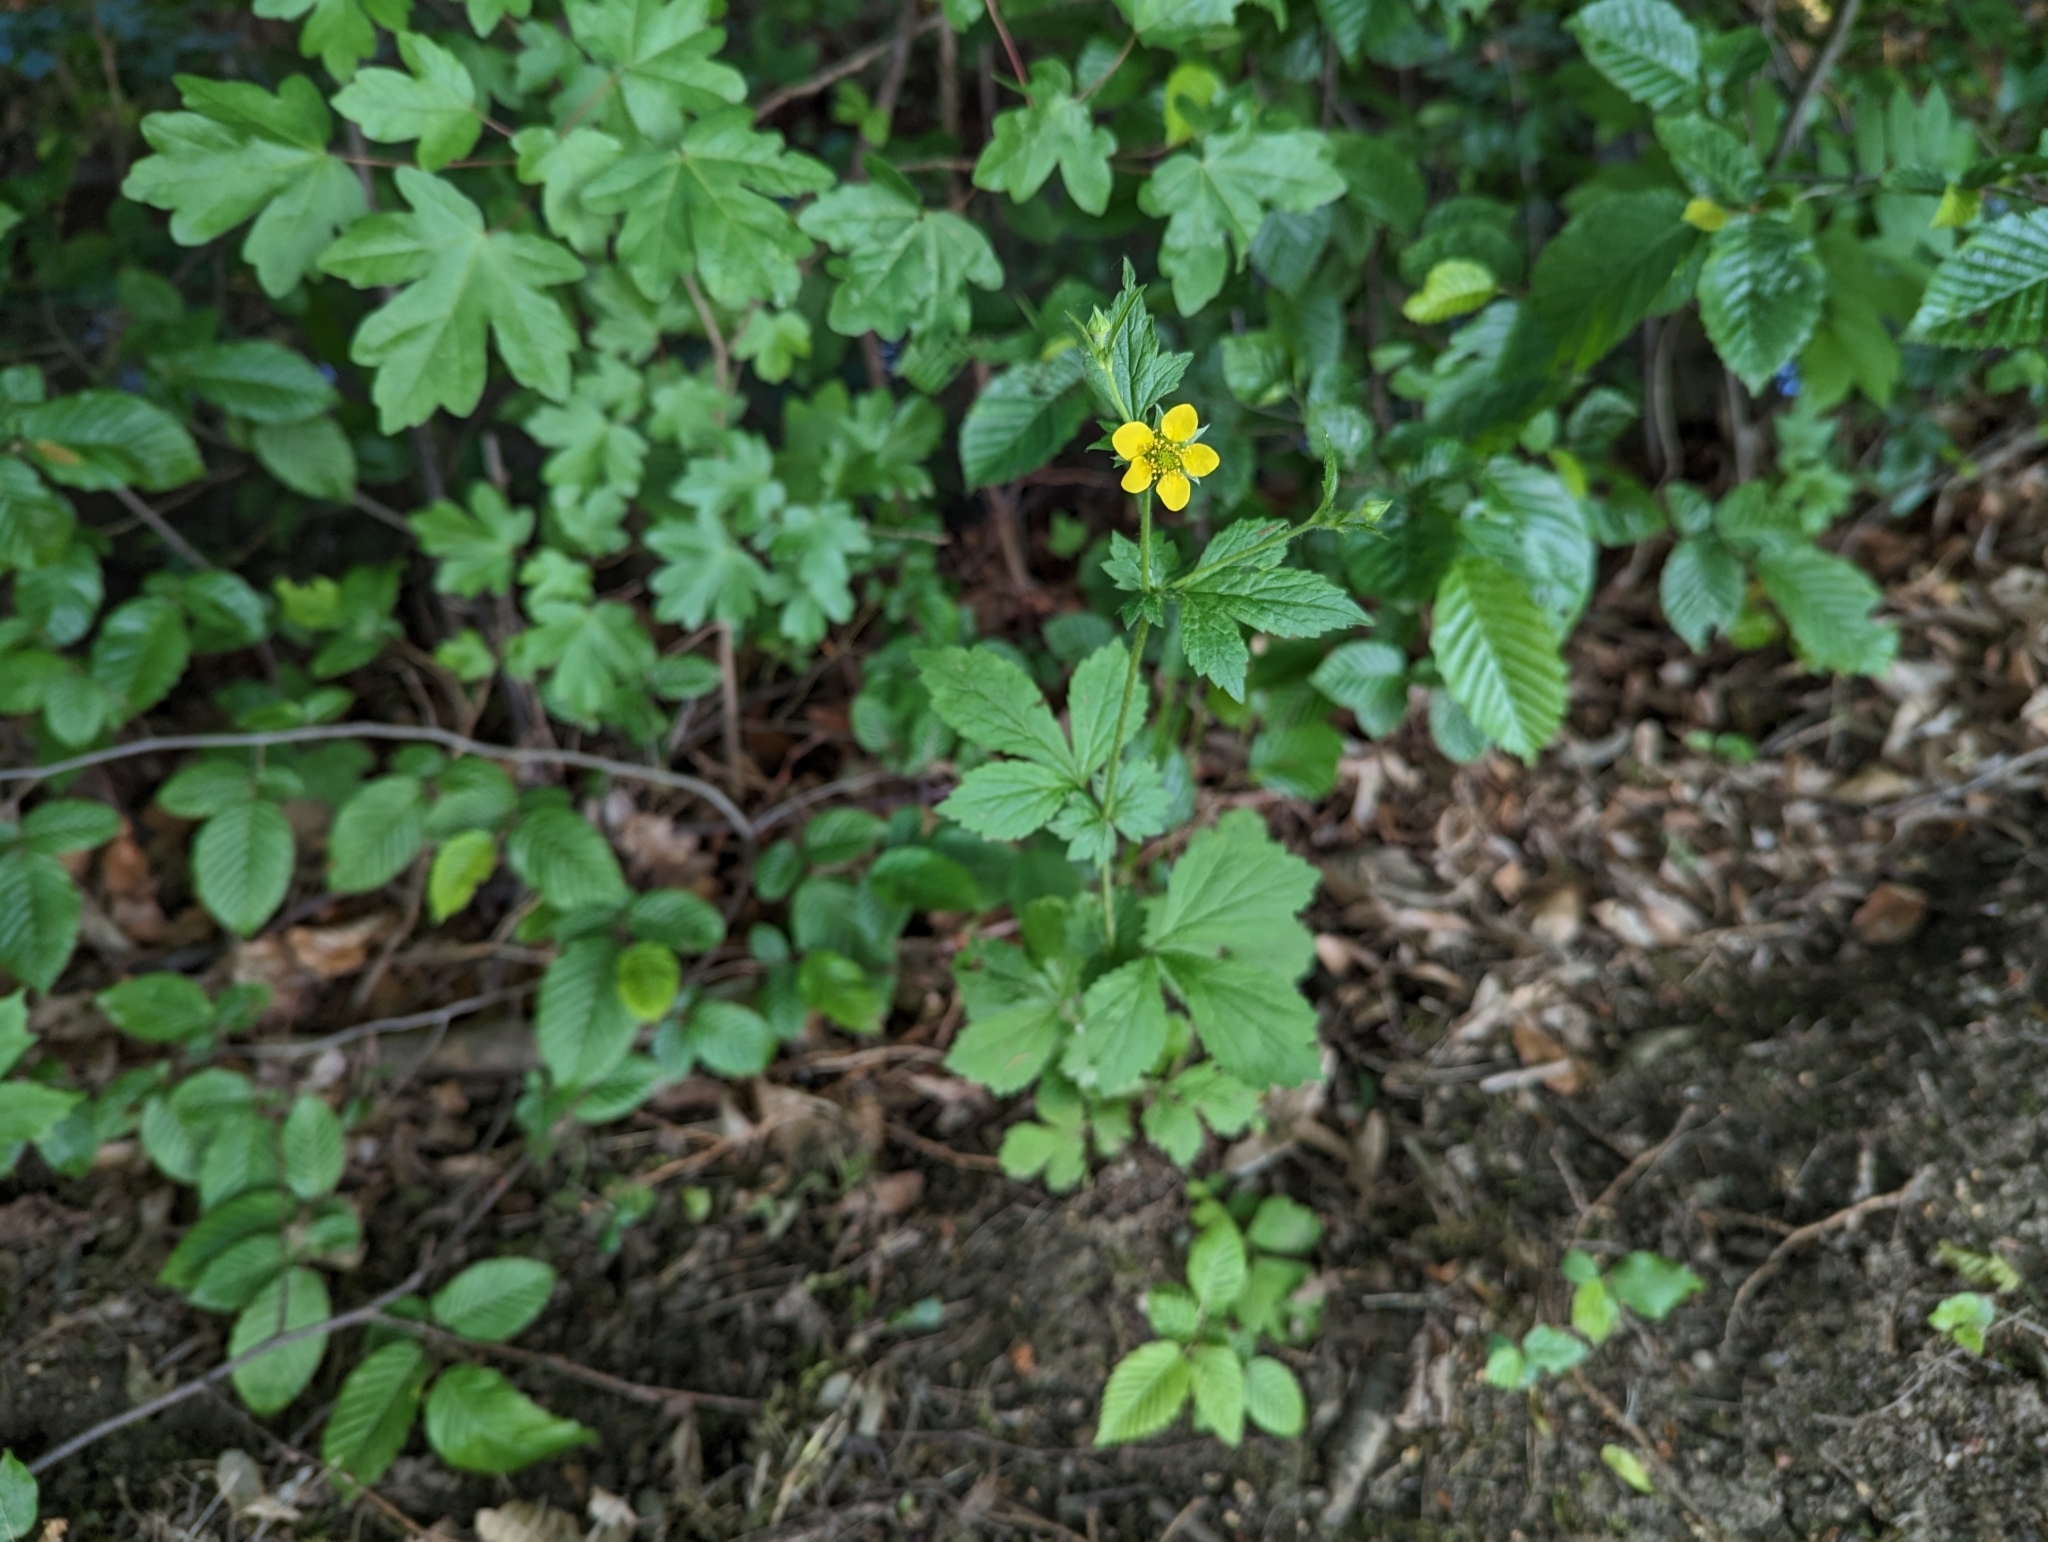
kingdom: Plantae
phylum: Tracheophyta
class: Magnoliopsida
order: Rosales
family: Rosaceae
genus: Geum
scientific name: Geum urbanum
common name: Wood avens
